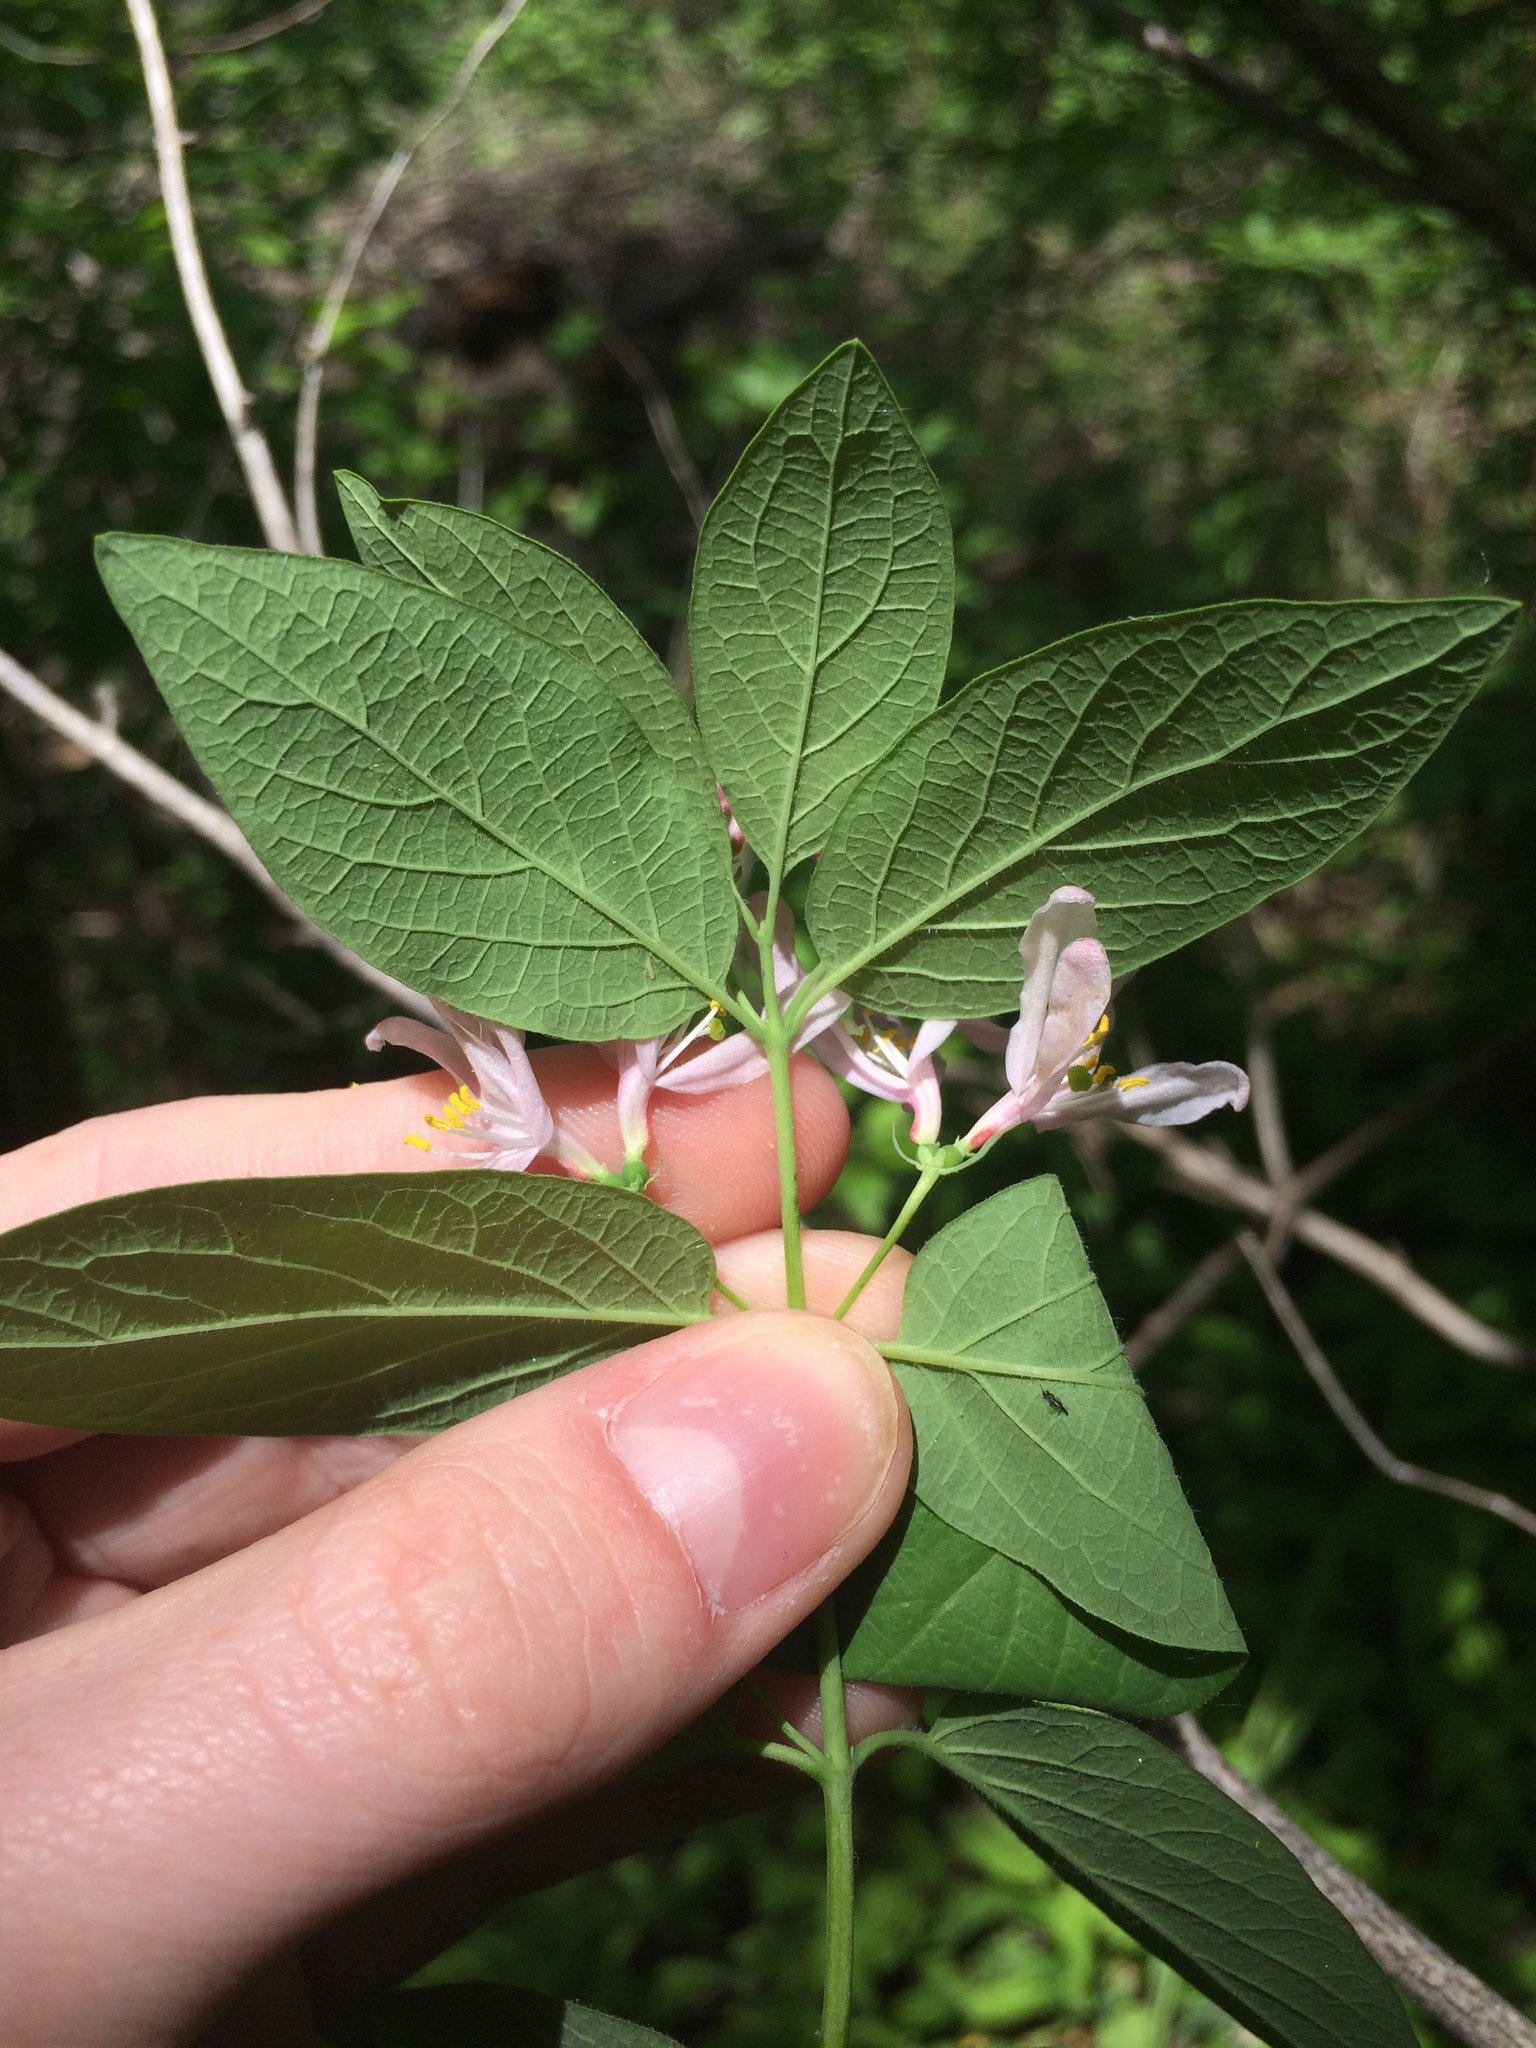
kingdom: Plantae
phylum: Tracheophyta
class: Magnoliopsida
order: Dipsacales
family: Caprifoliaceae
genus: Lonicera
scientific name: Lonicera bella
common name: Bell's honeysuckle
